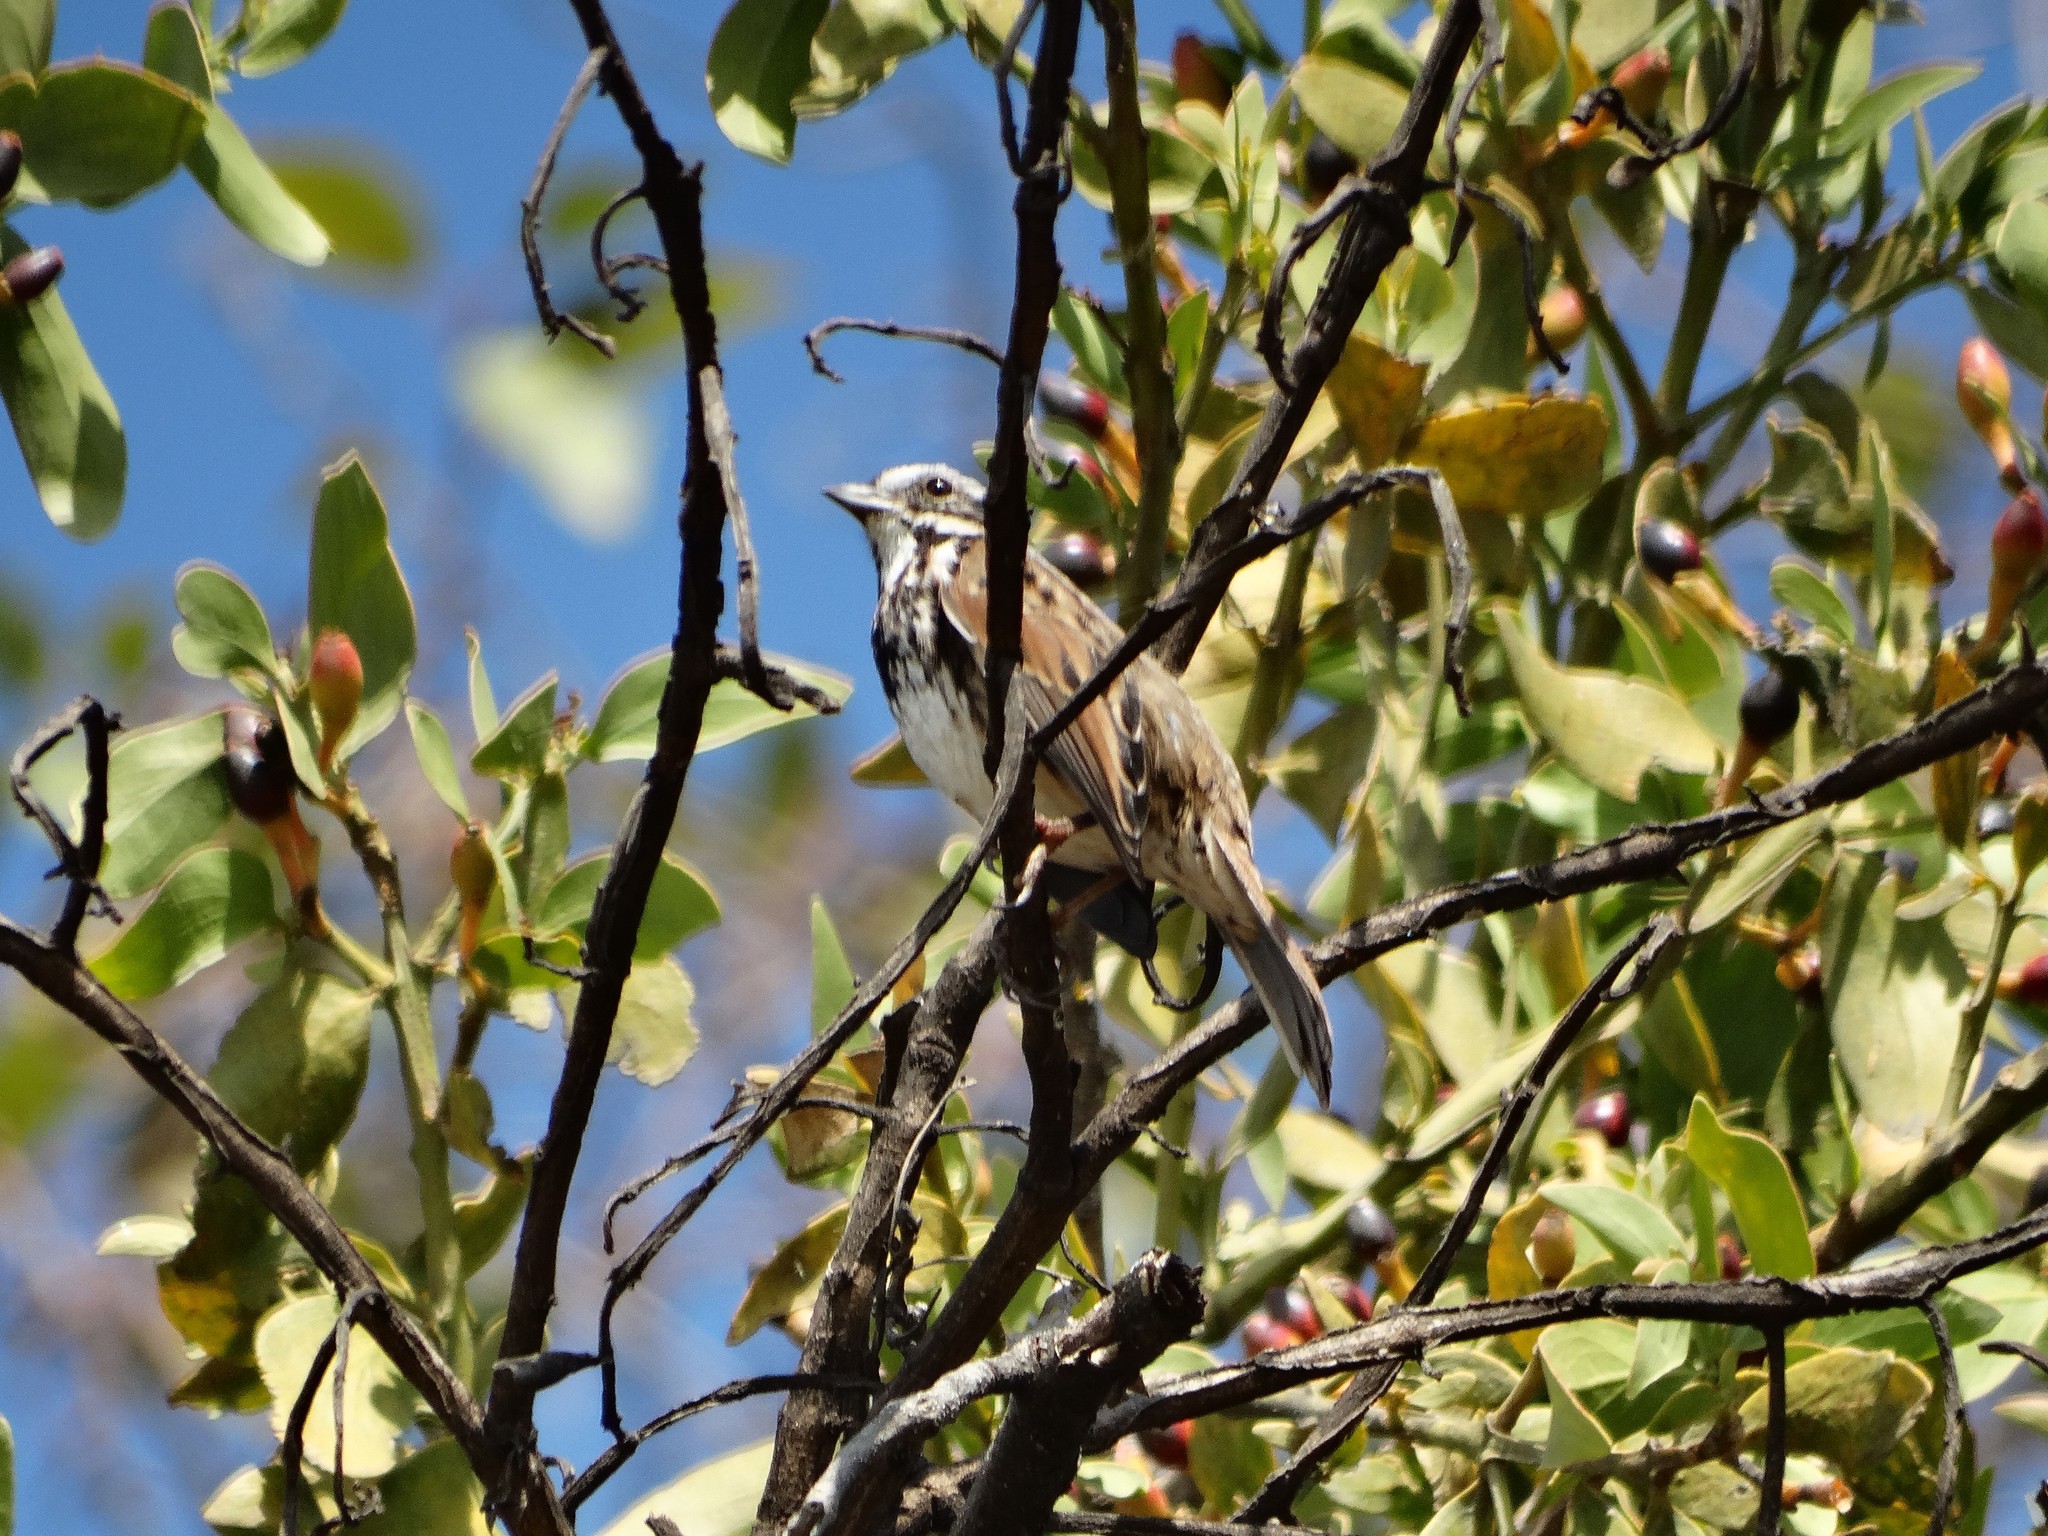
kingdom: Animalia
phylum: Chordata
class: Aves
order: Passeriformes
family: Passerellidae
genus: Melospiza
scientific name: Melospiza melodia
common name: Song sparrow
